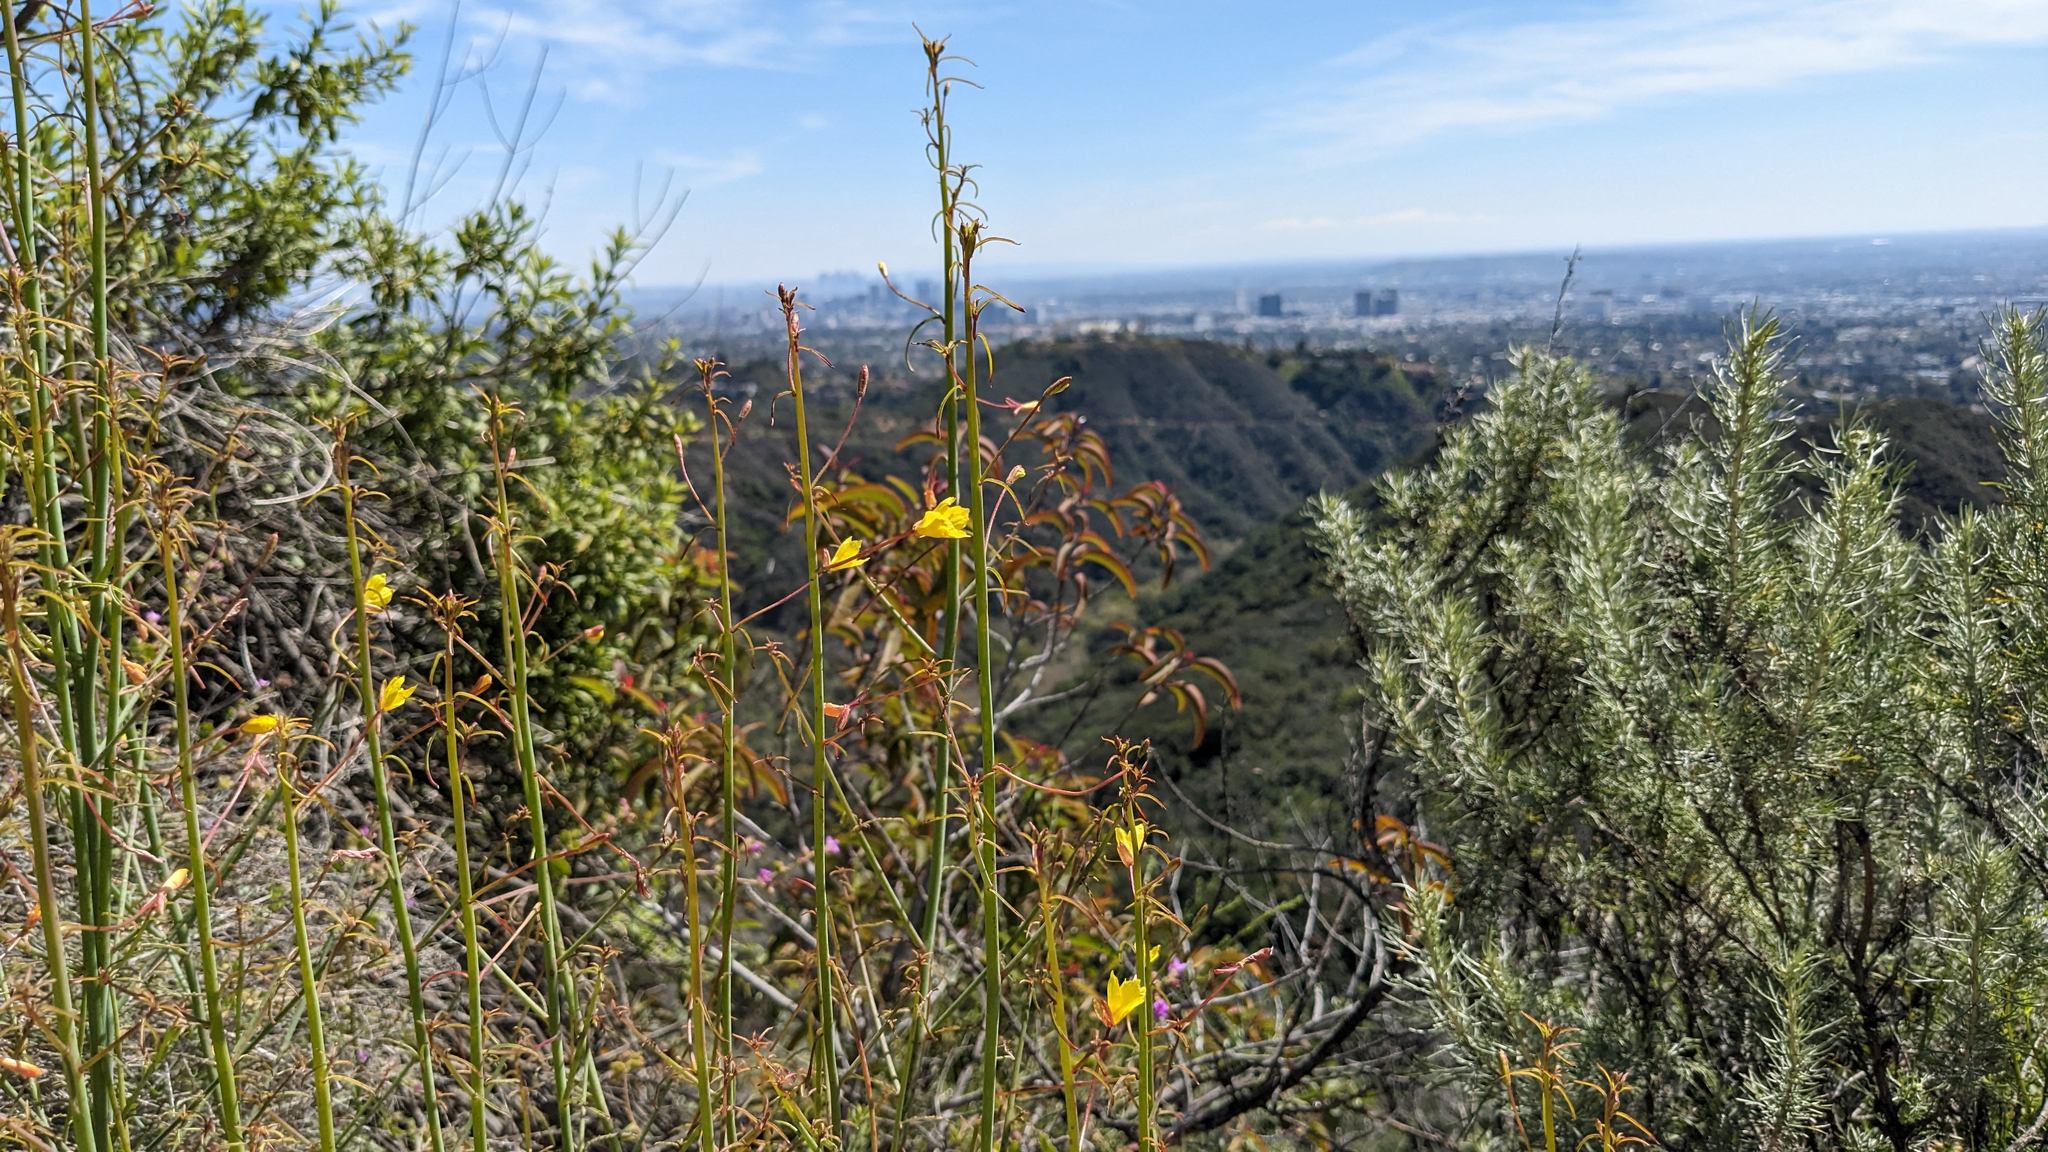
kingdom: Plantae
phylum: Tracheophyta
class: Magnoliopsida
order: Myrtales
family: Onagraceae
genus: Eulobus
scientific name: Eulobus californicus
